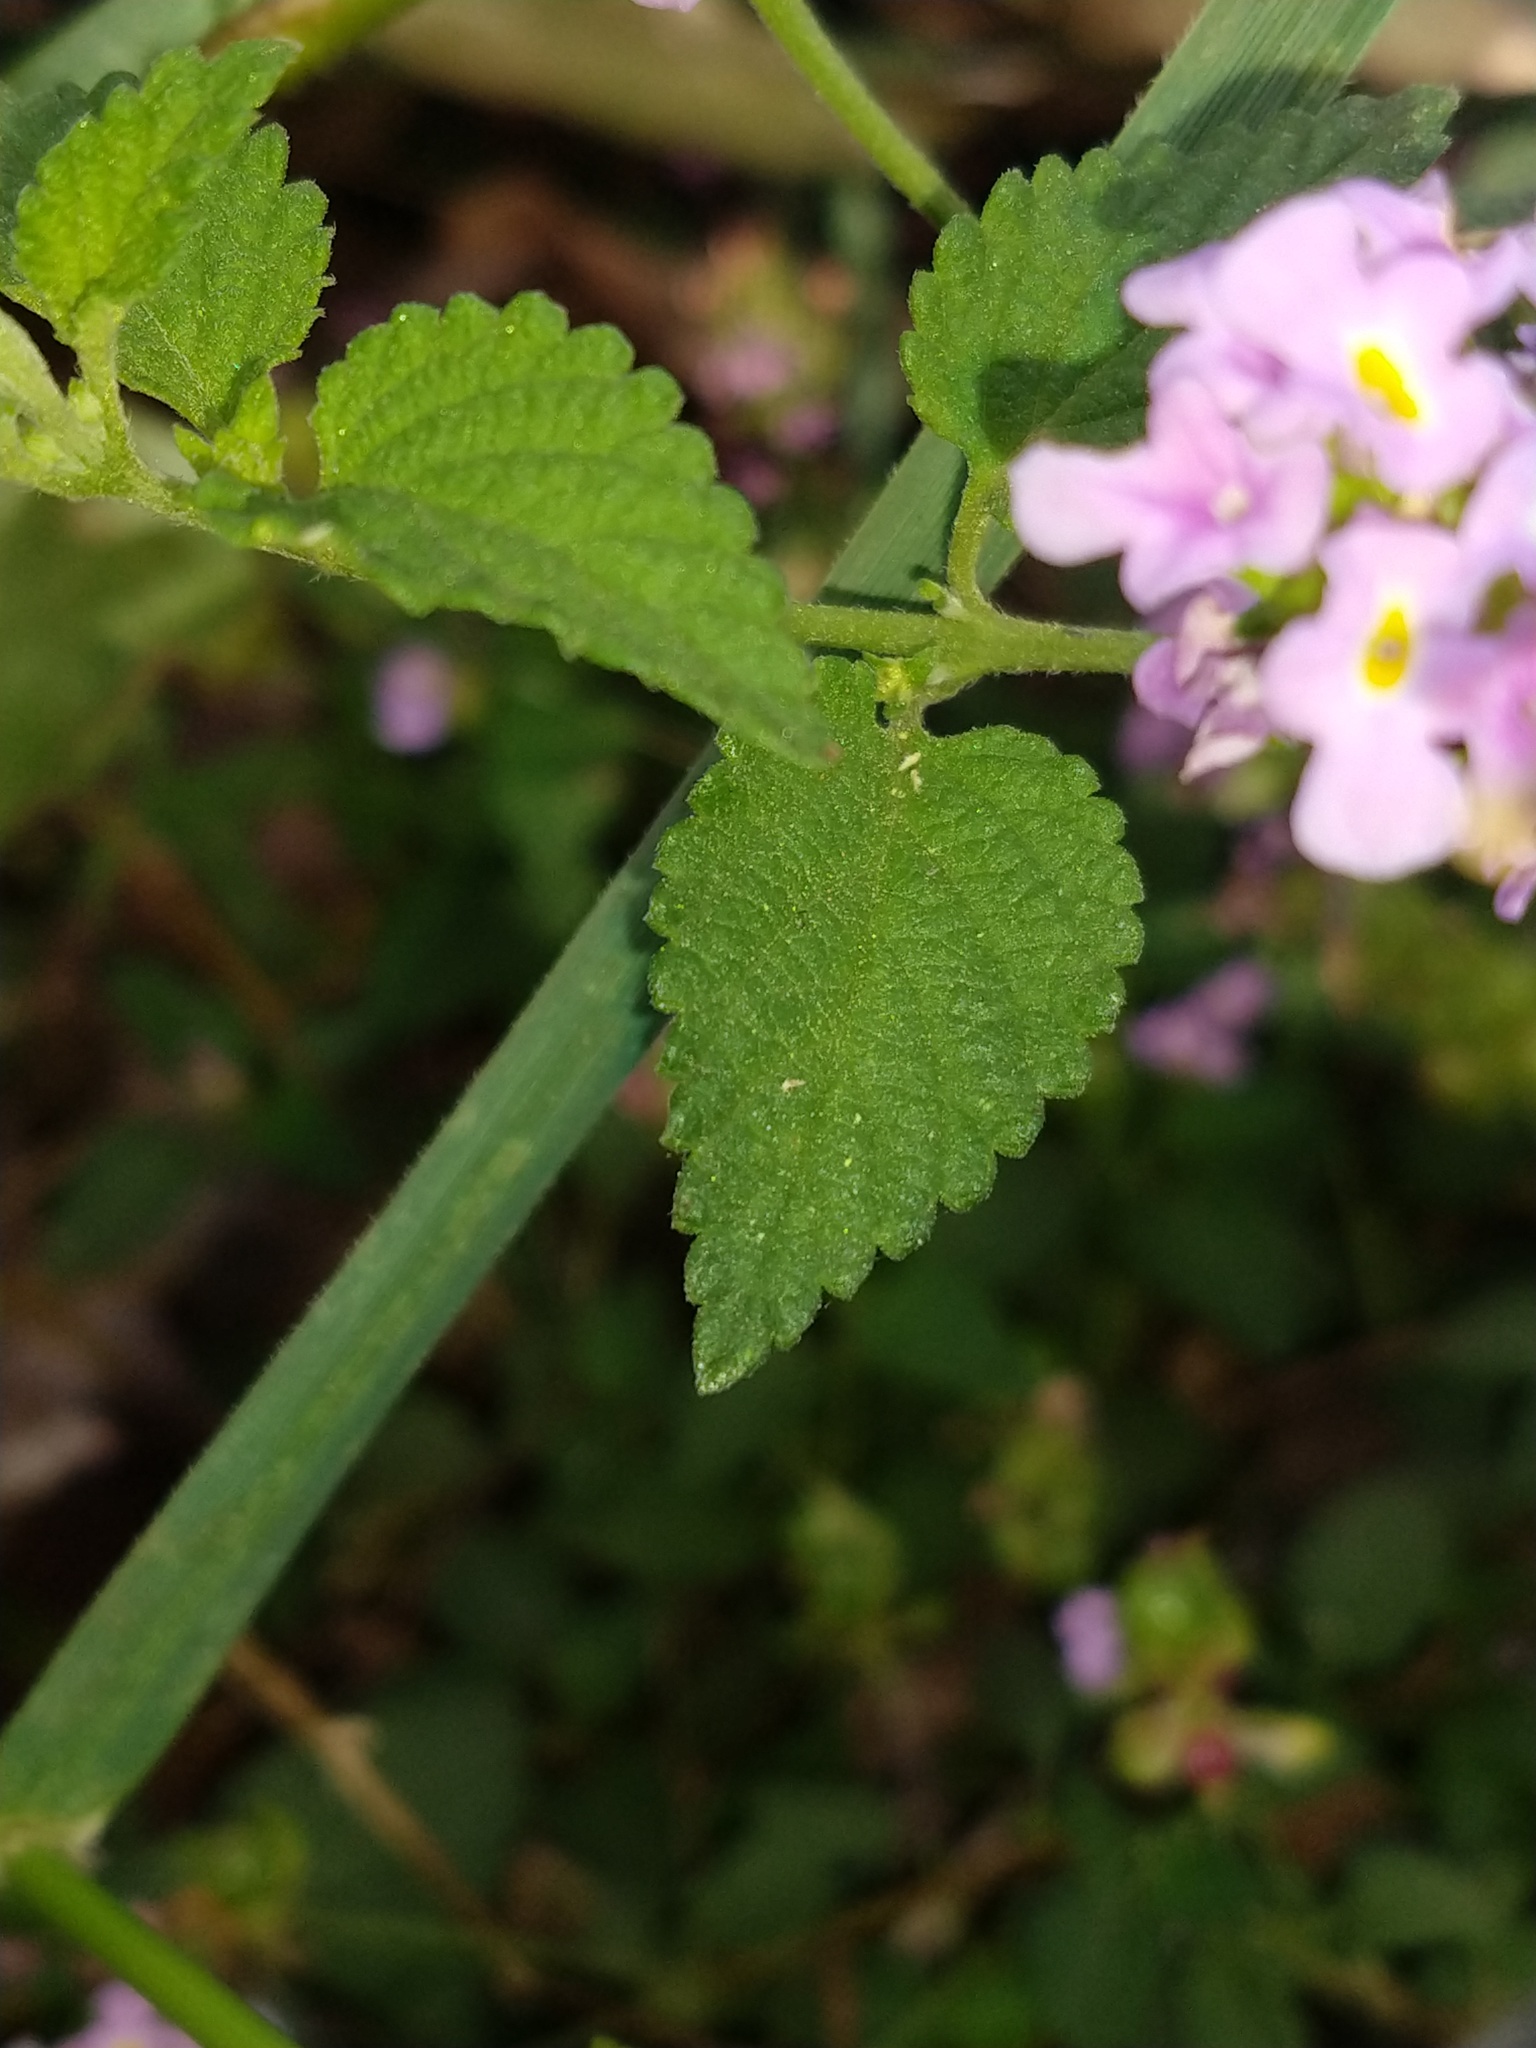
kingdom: Plantae
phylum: Tracheophyta
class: Magnoliopsida
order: Lamiales
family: Verbenaceae
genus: Lantana
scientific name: Lantana montevidensis
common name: Trailing shrubverbena
